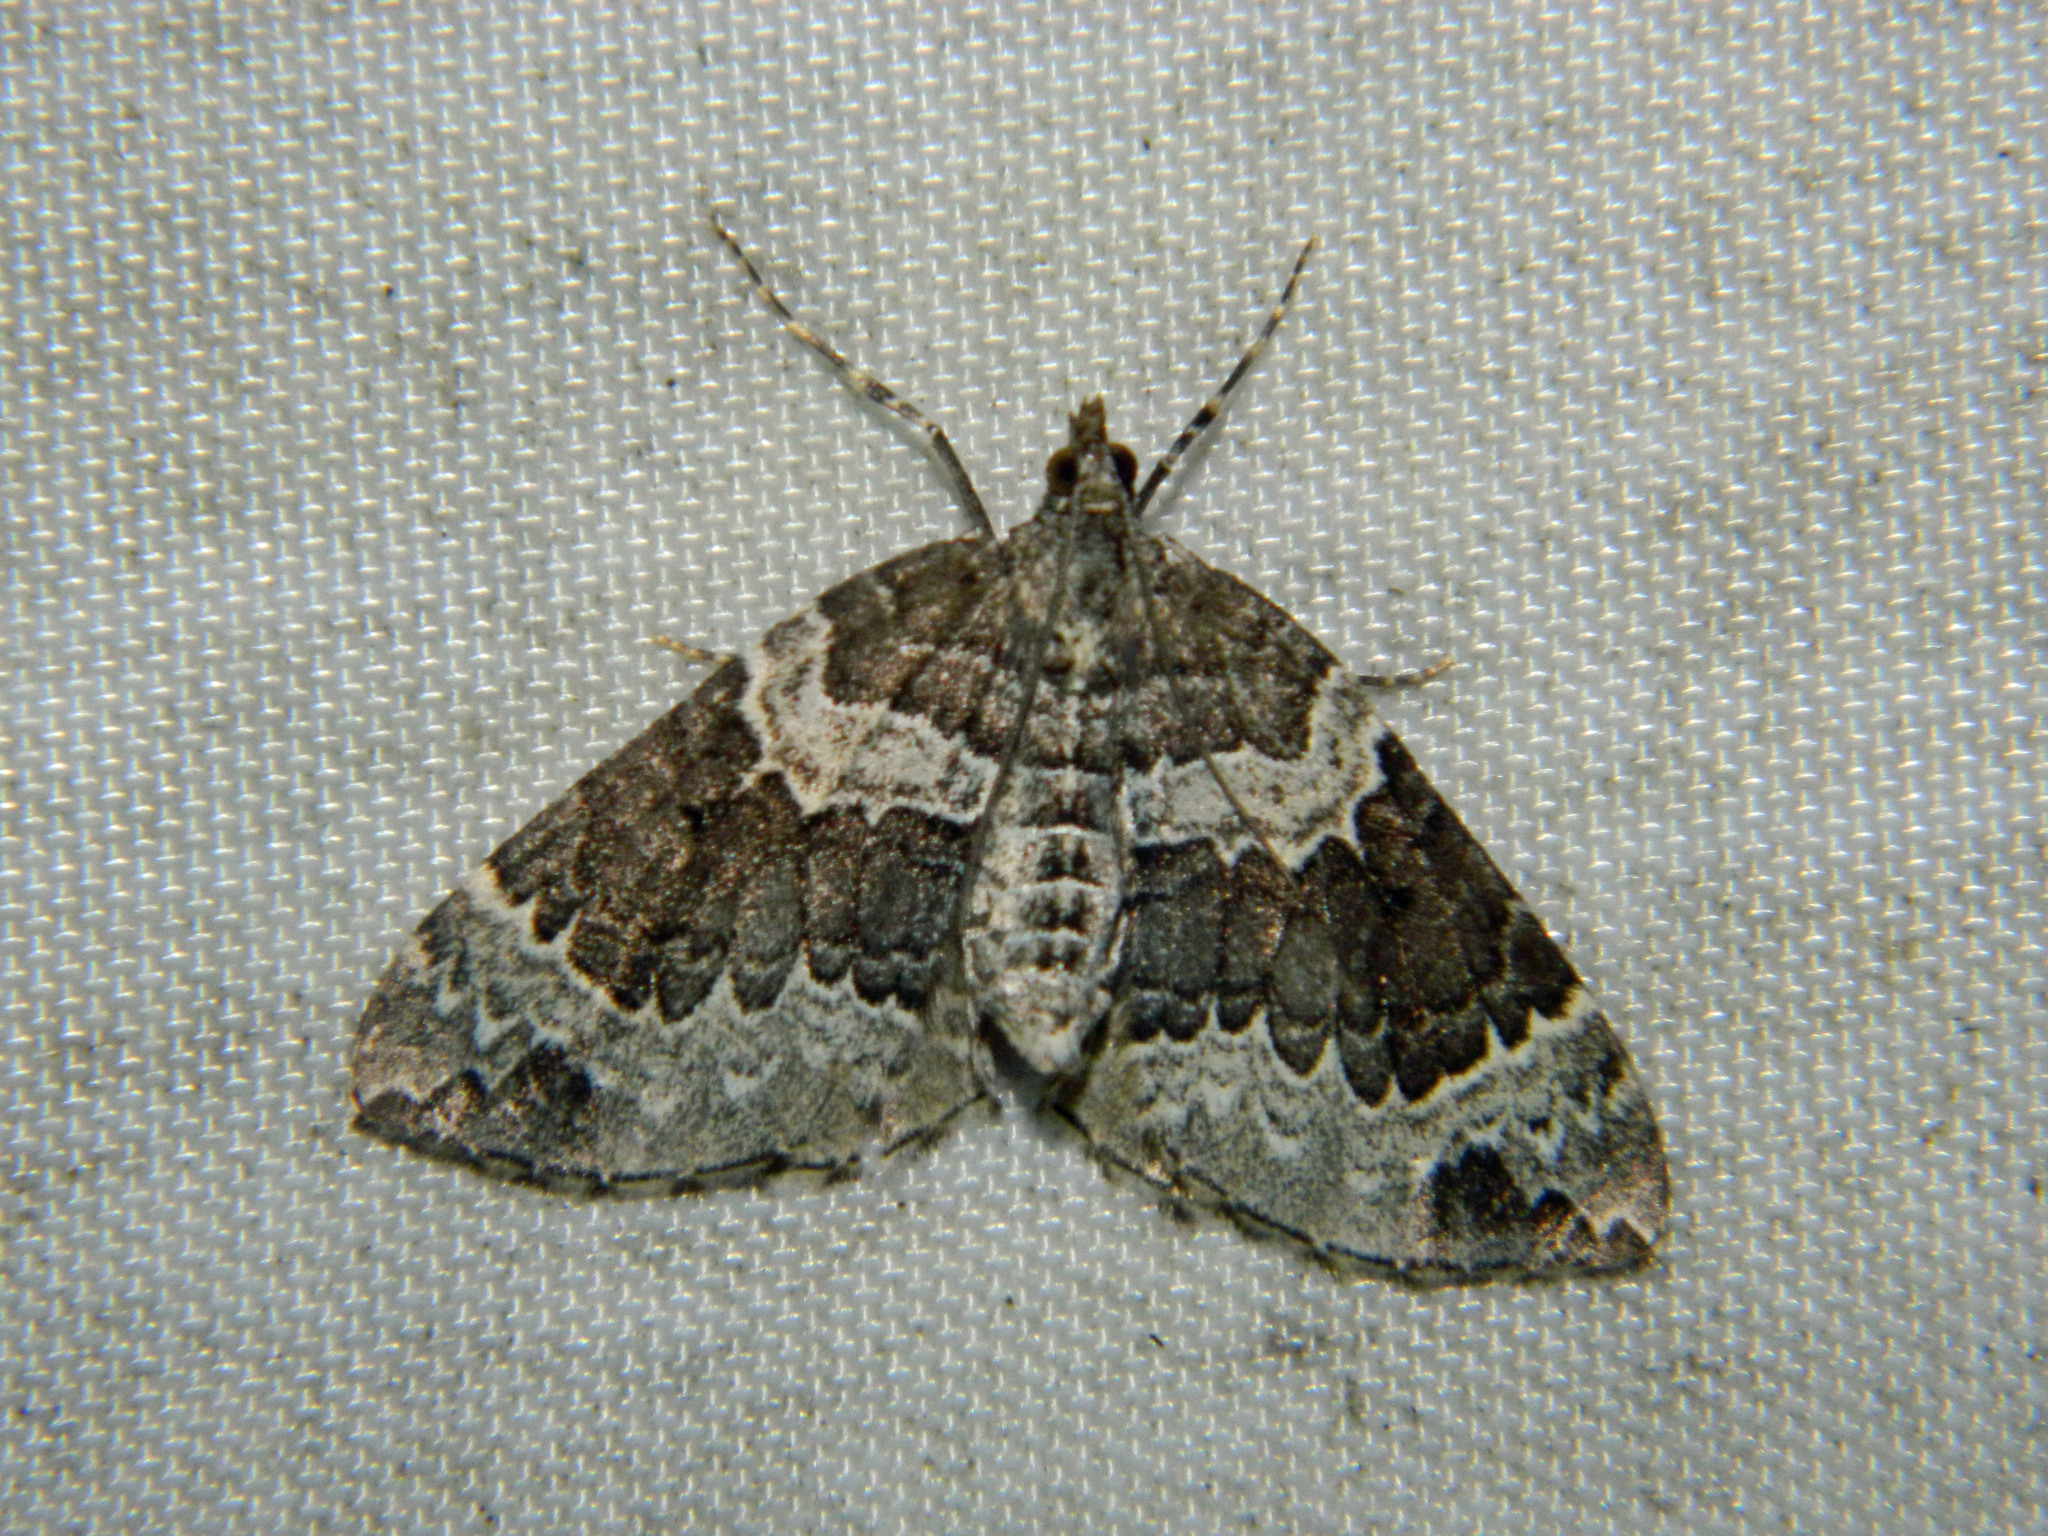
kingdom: Animalia
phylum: Arthropoda
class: Insecta
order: Lepidoptera
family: Geometridae
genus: Eulithis
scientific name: Eulithis explanata
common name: White eulithis
